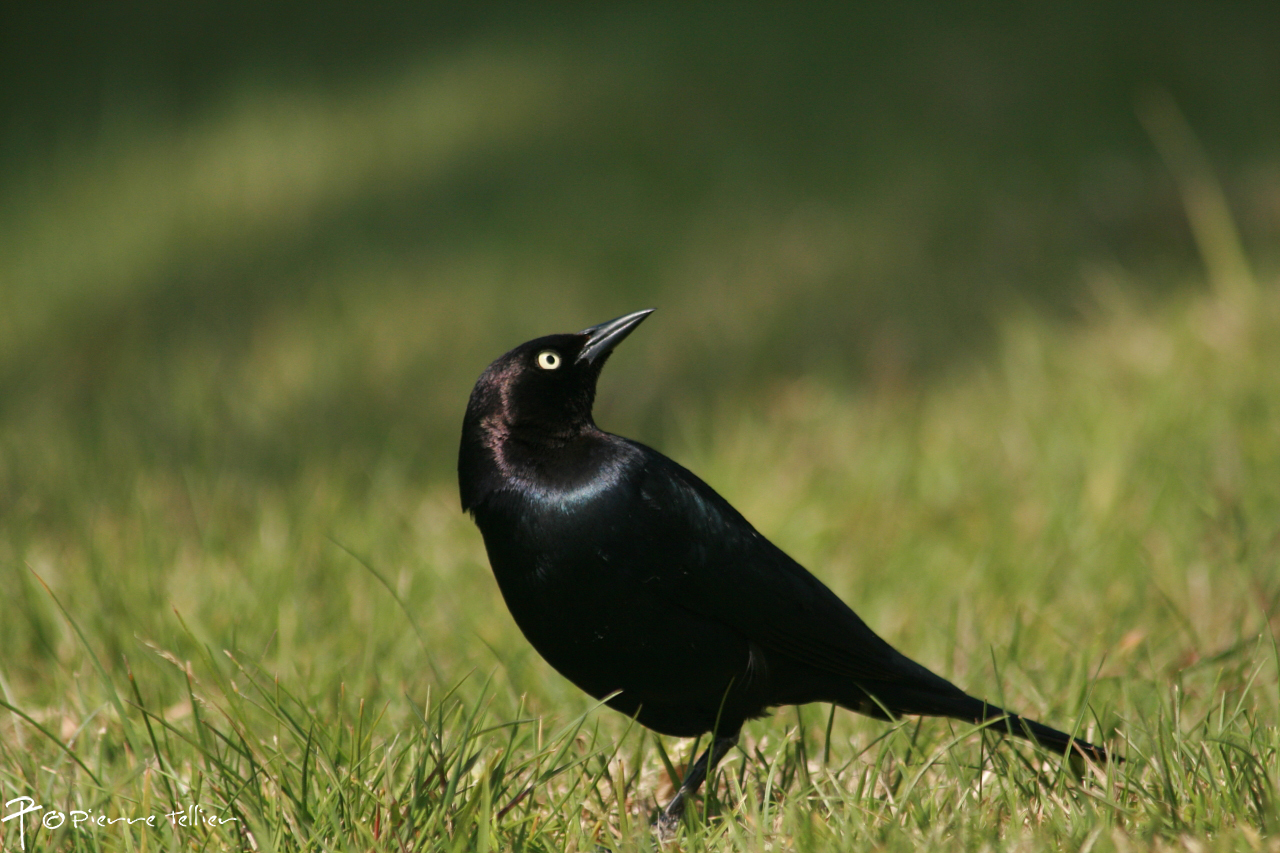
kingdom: Animalia
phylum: Chordata
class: Aves
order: Passeriformes
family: Icteridae
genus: Euphagus
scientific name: Euphagus cyanocephalus
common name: Brewer's blackbird
